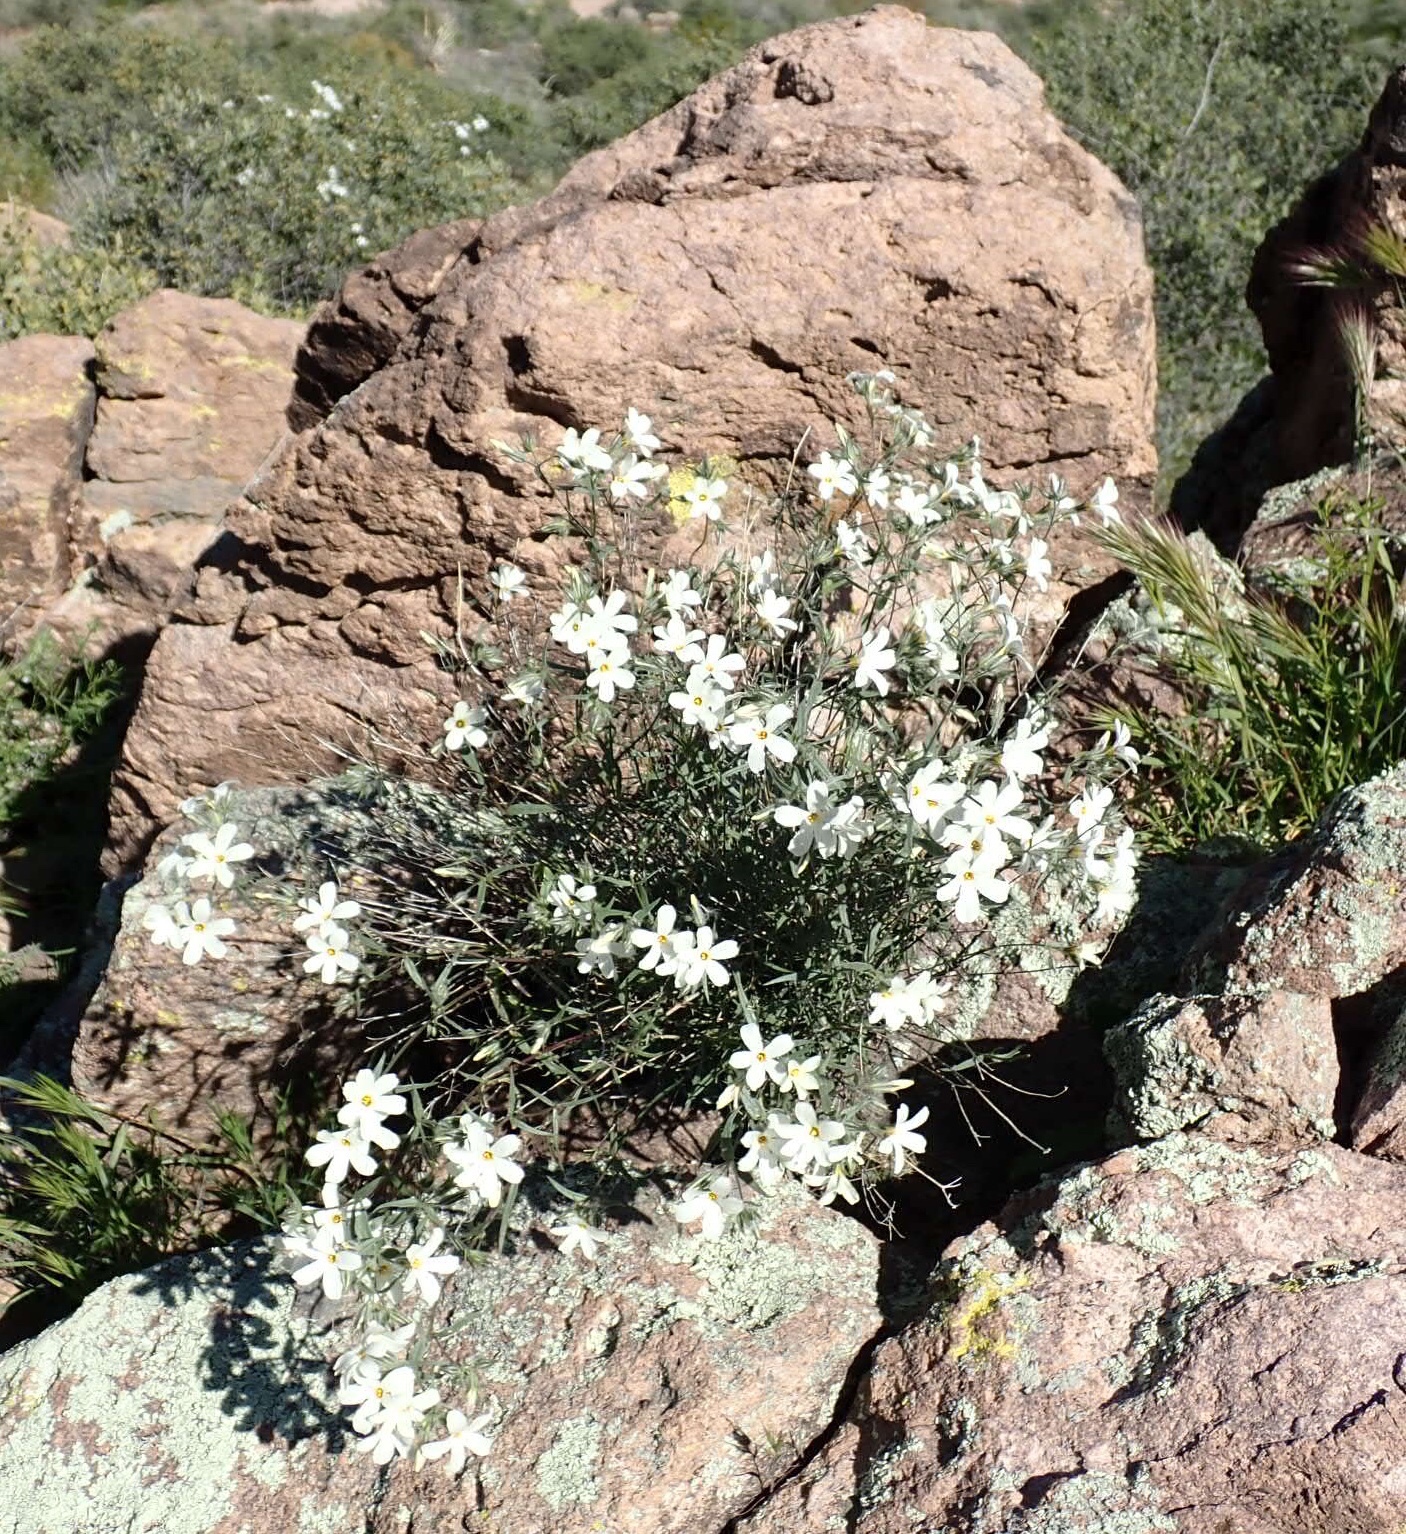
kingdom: Plantae
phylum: Tracheophyta
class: Magnoliopsida
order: Ericales
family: Polemoniaceae
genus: Phlox
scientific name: Phlox tenuifolia
